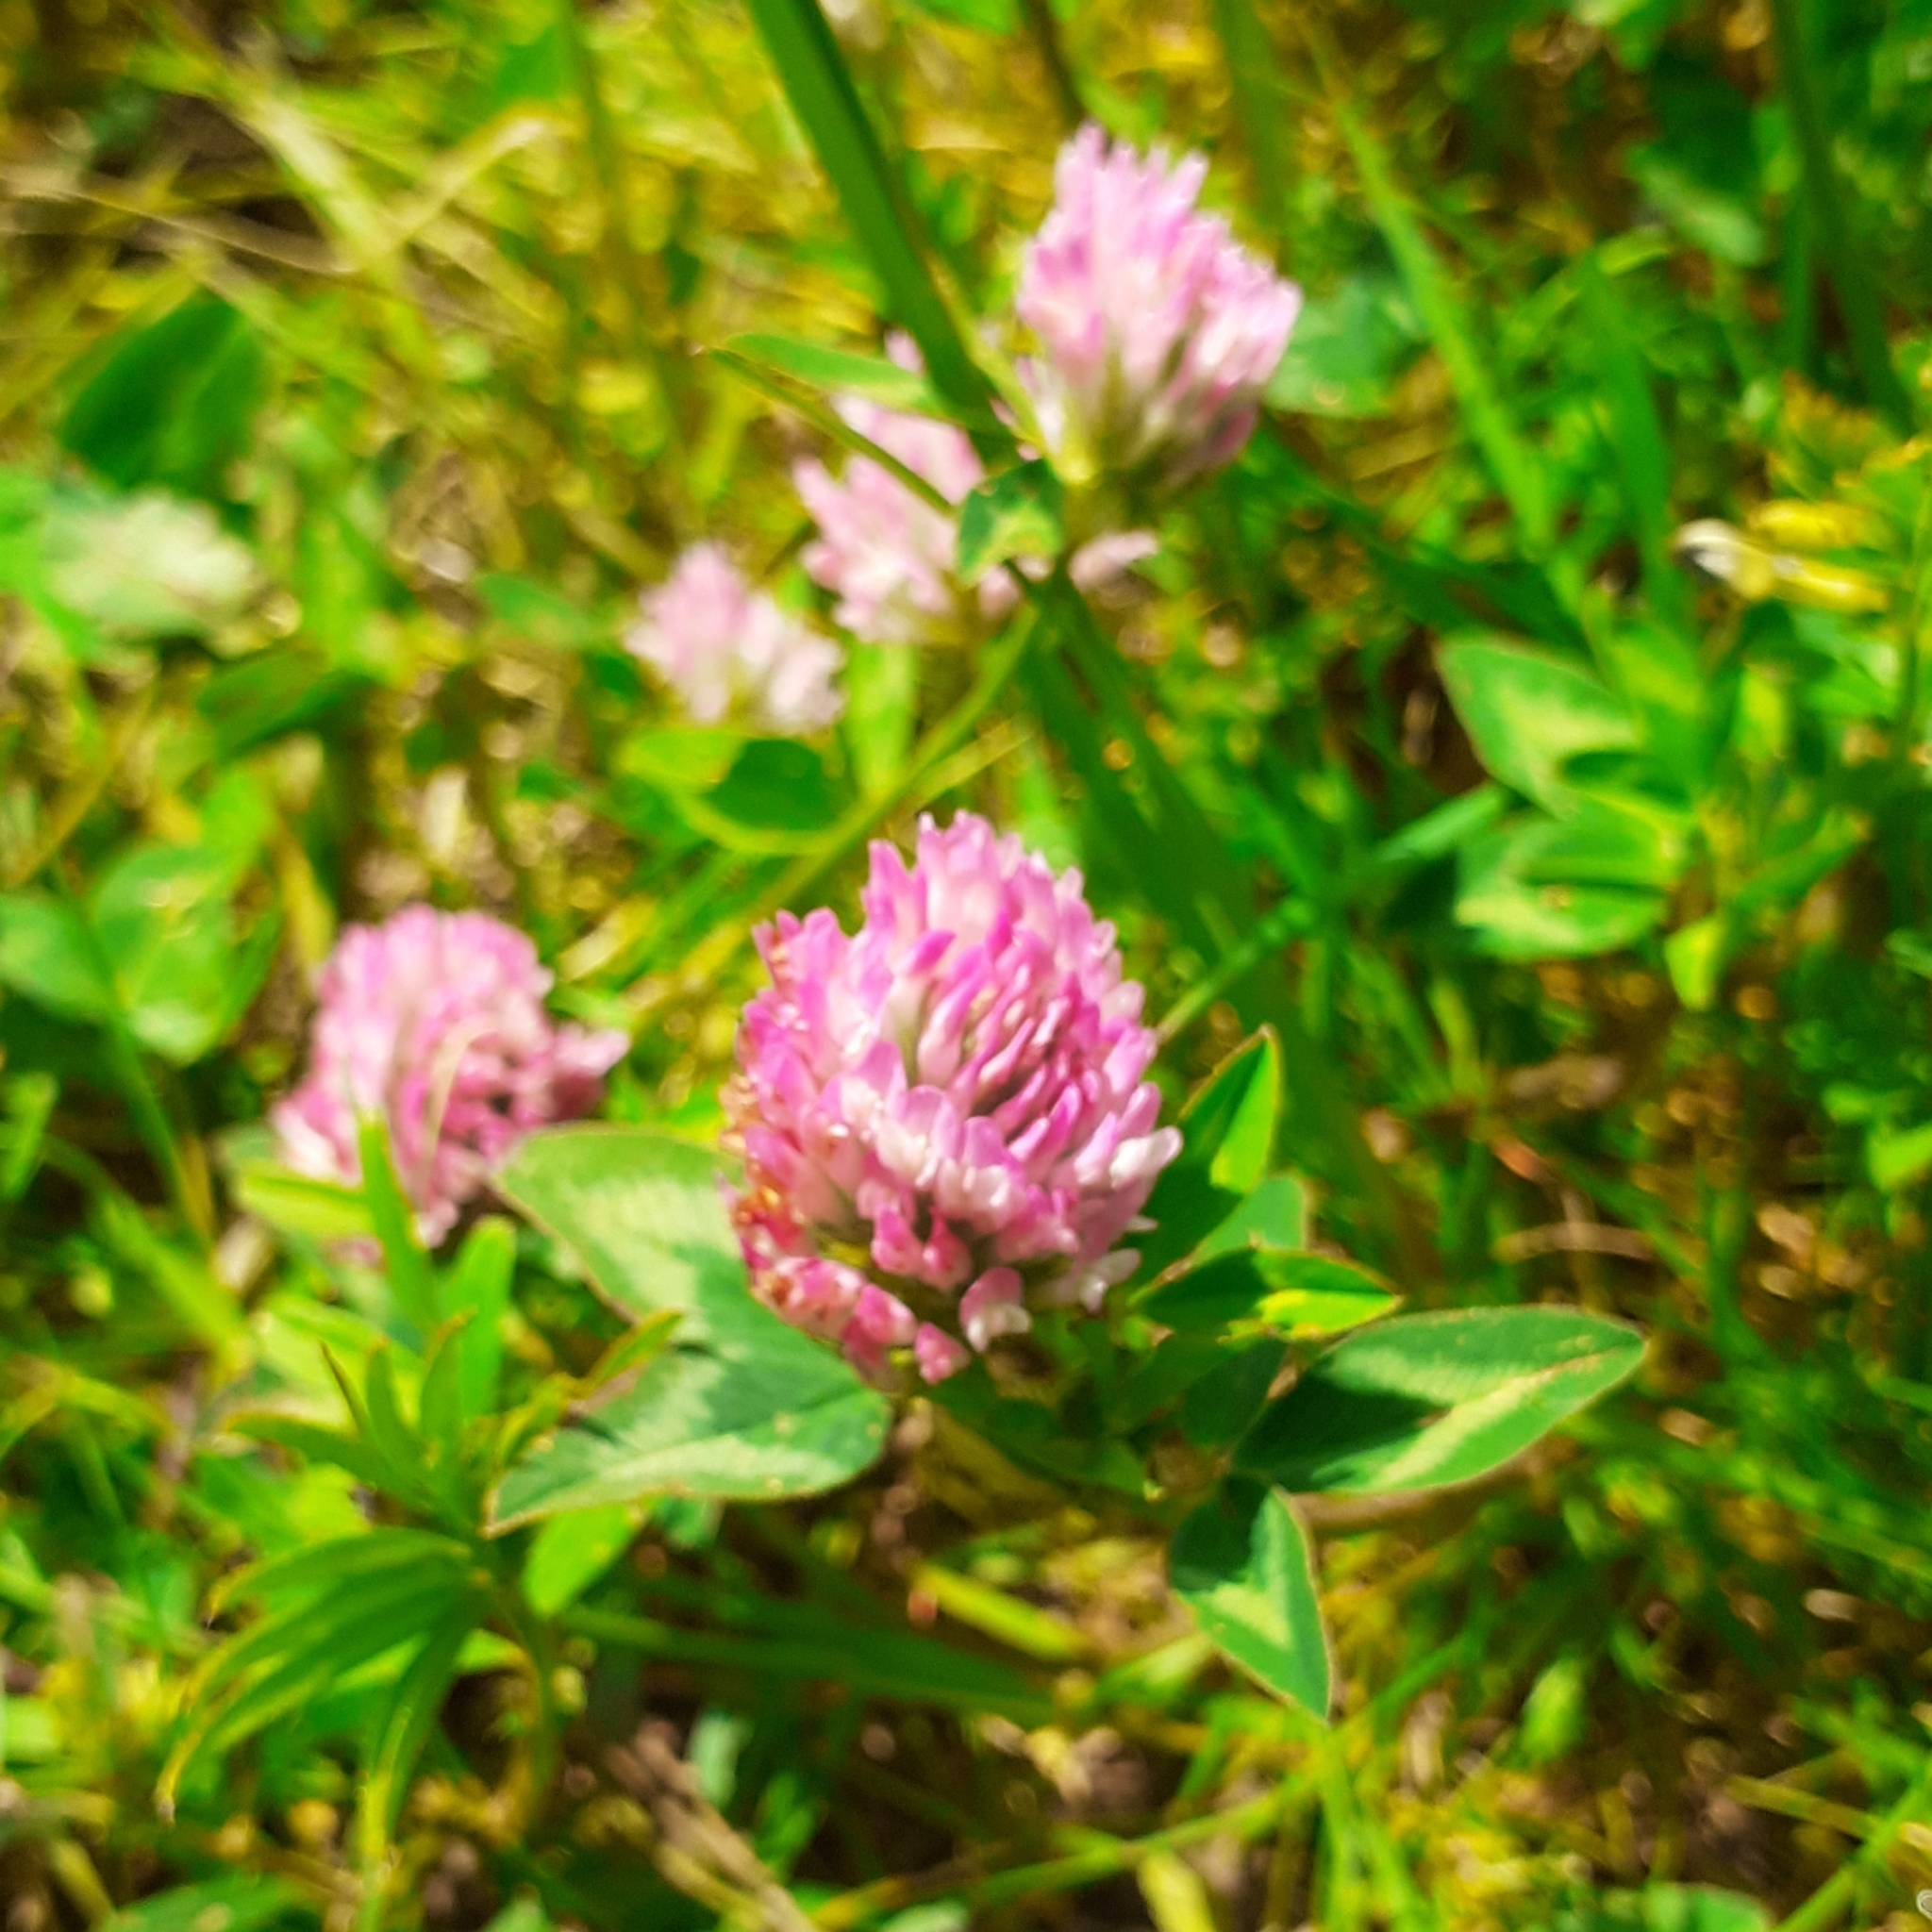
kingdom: Plantae
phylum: Tracheophyta
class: Magnoliopsida
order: Fabales
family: Fabaceae
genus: Trifolium
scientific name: Trifolium pratense
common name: Red clover
